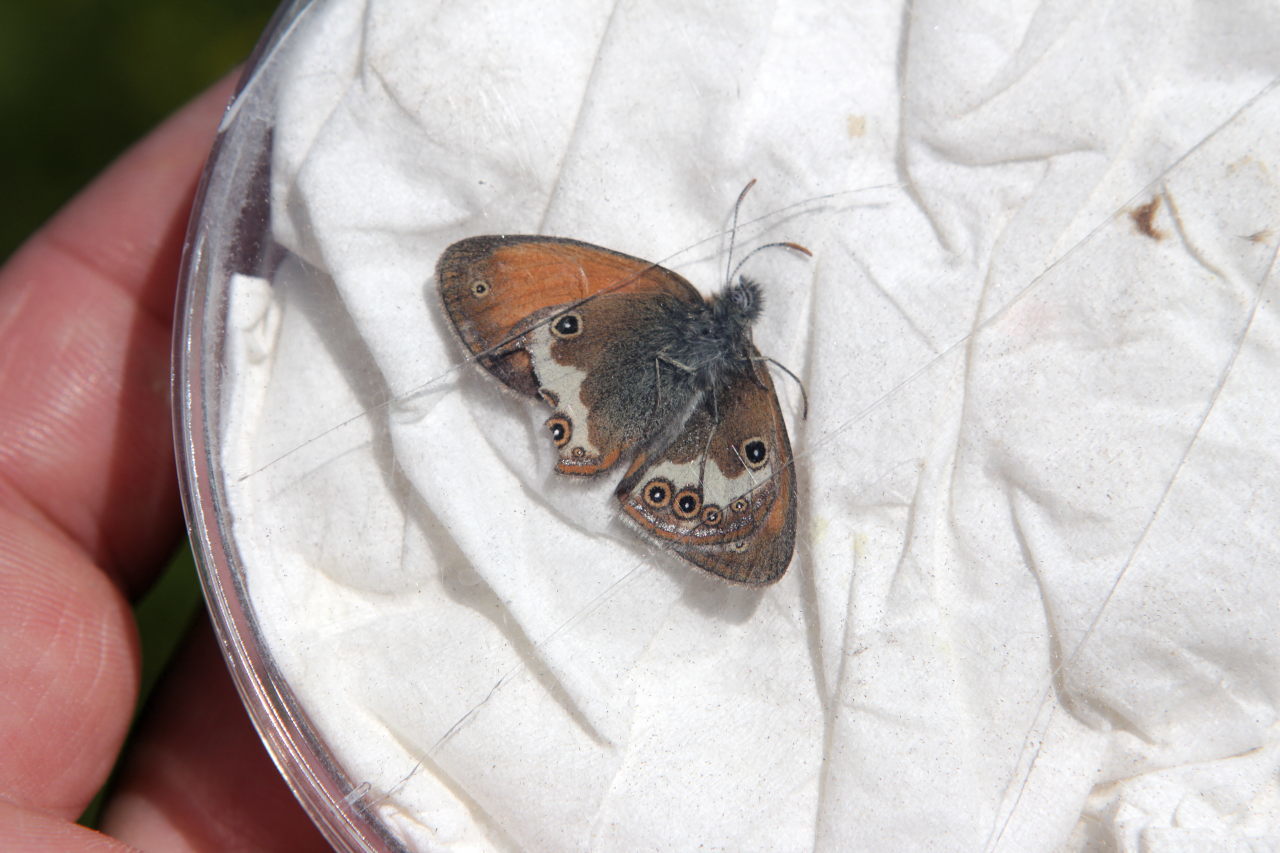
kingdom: Animalia
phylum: Arthropoda
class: Insecta
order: Lepidoptera
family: Nymphalidae
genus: Coenonympha
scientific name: Coenonympha arcania
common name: Pearly heath
